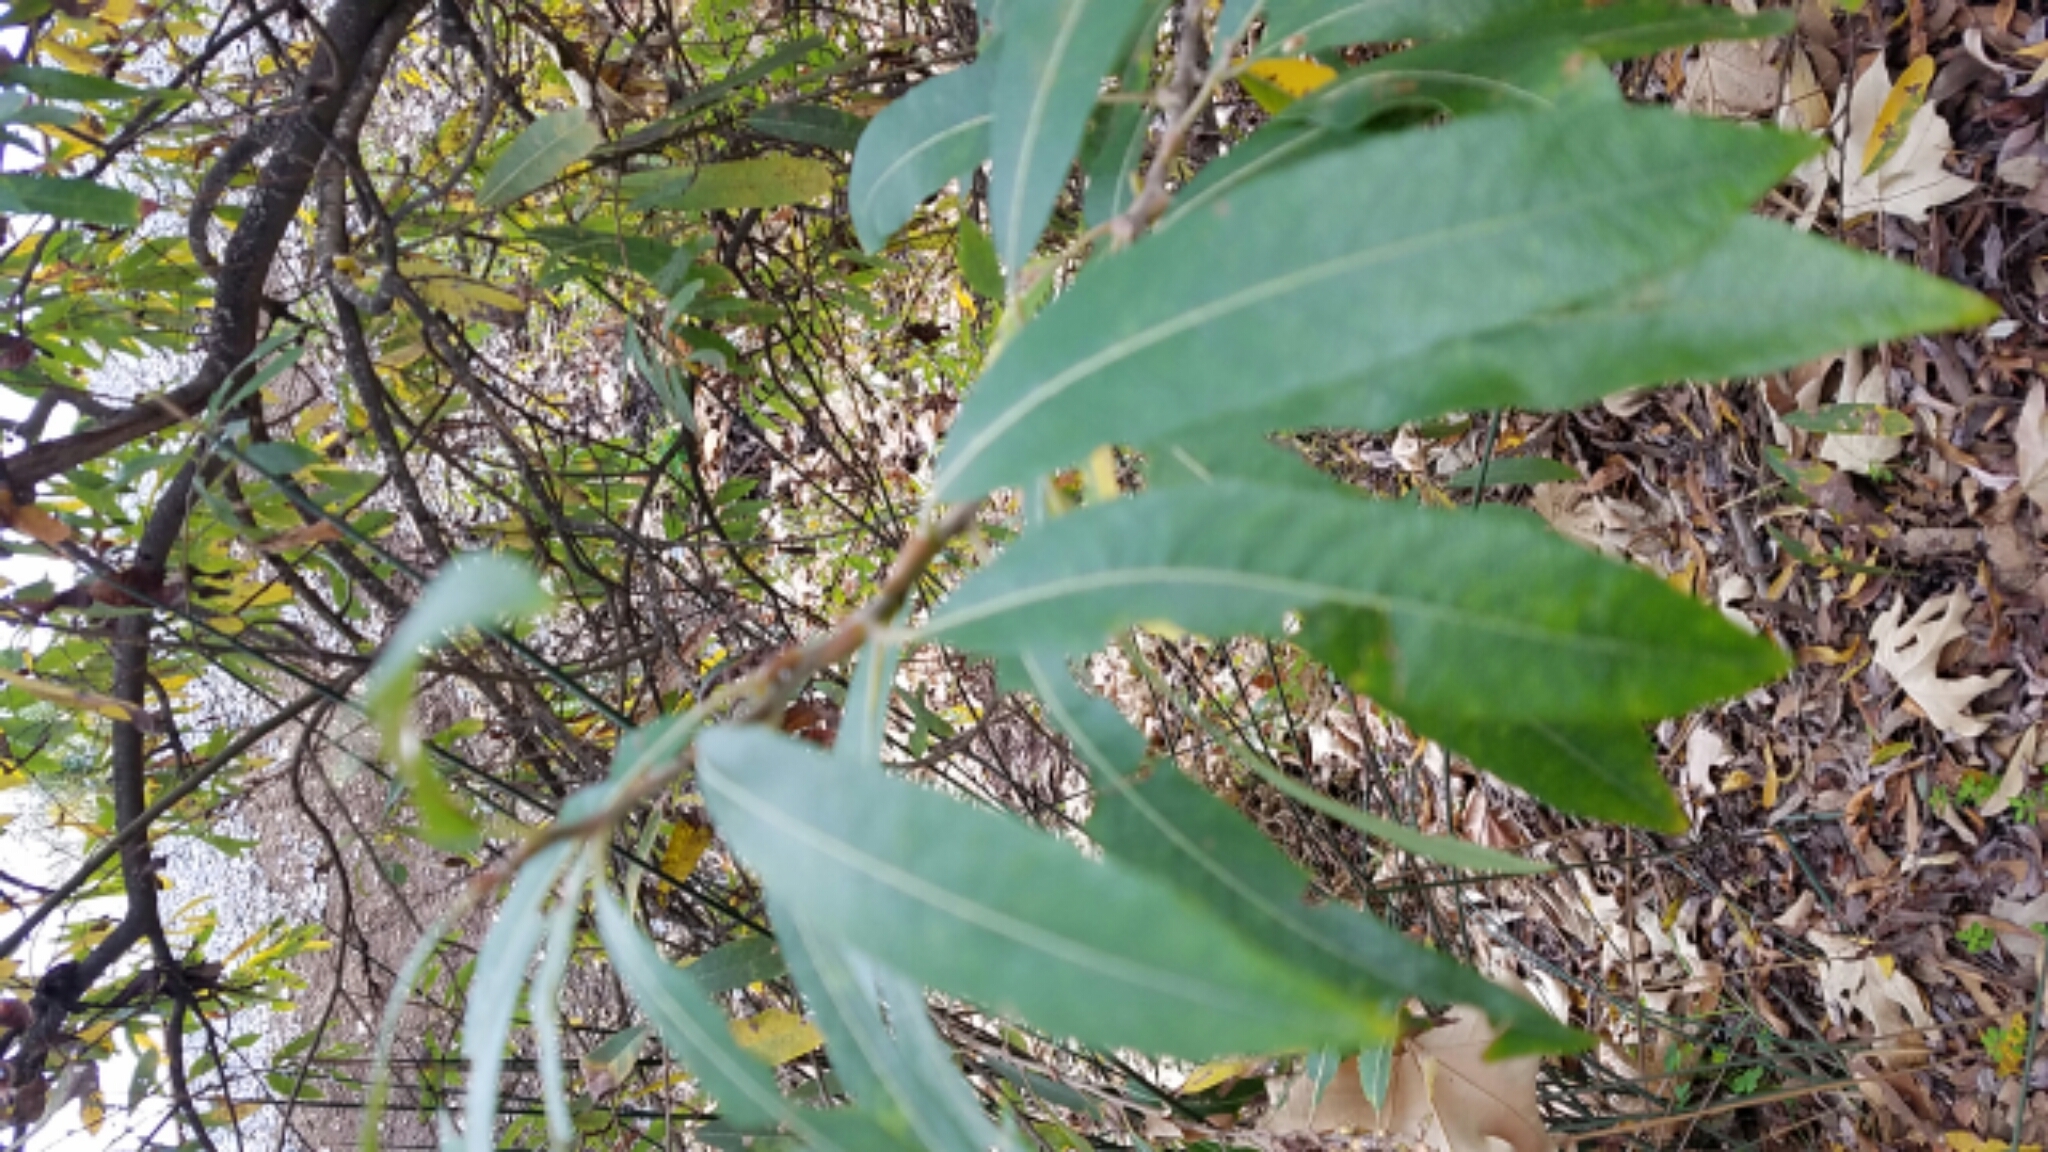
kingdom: Plantae
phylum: Tracheophyta
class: Magnoliopsida
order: Malpighiales
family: Salicaceae
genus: Salix
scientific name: Salix lasiolepis
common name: Arroyo willow
